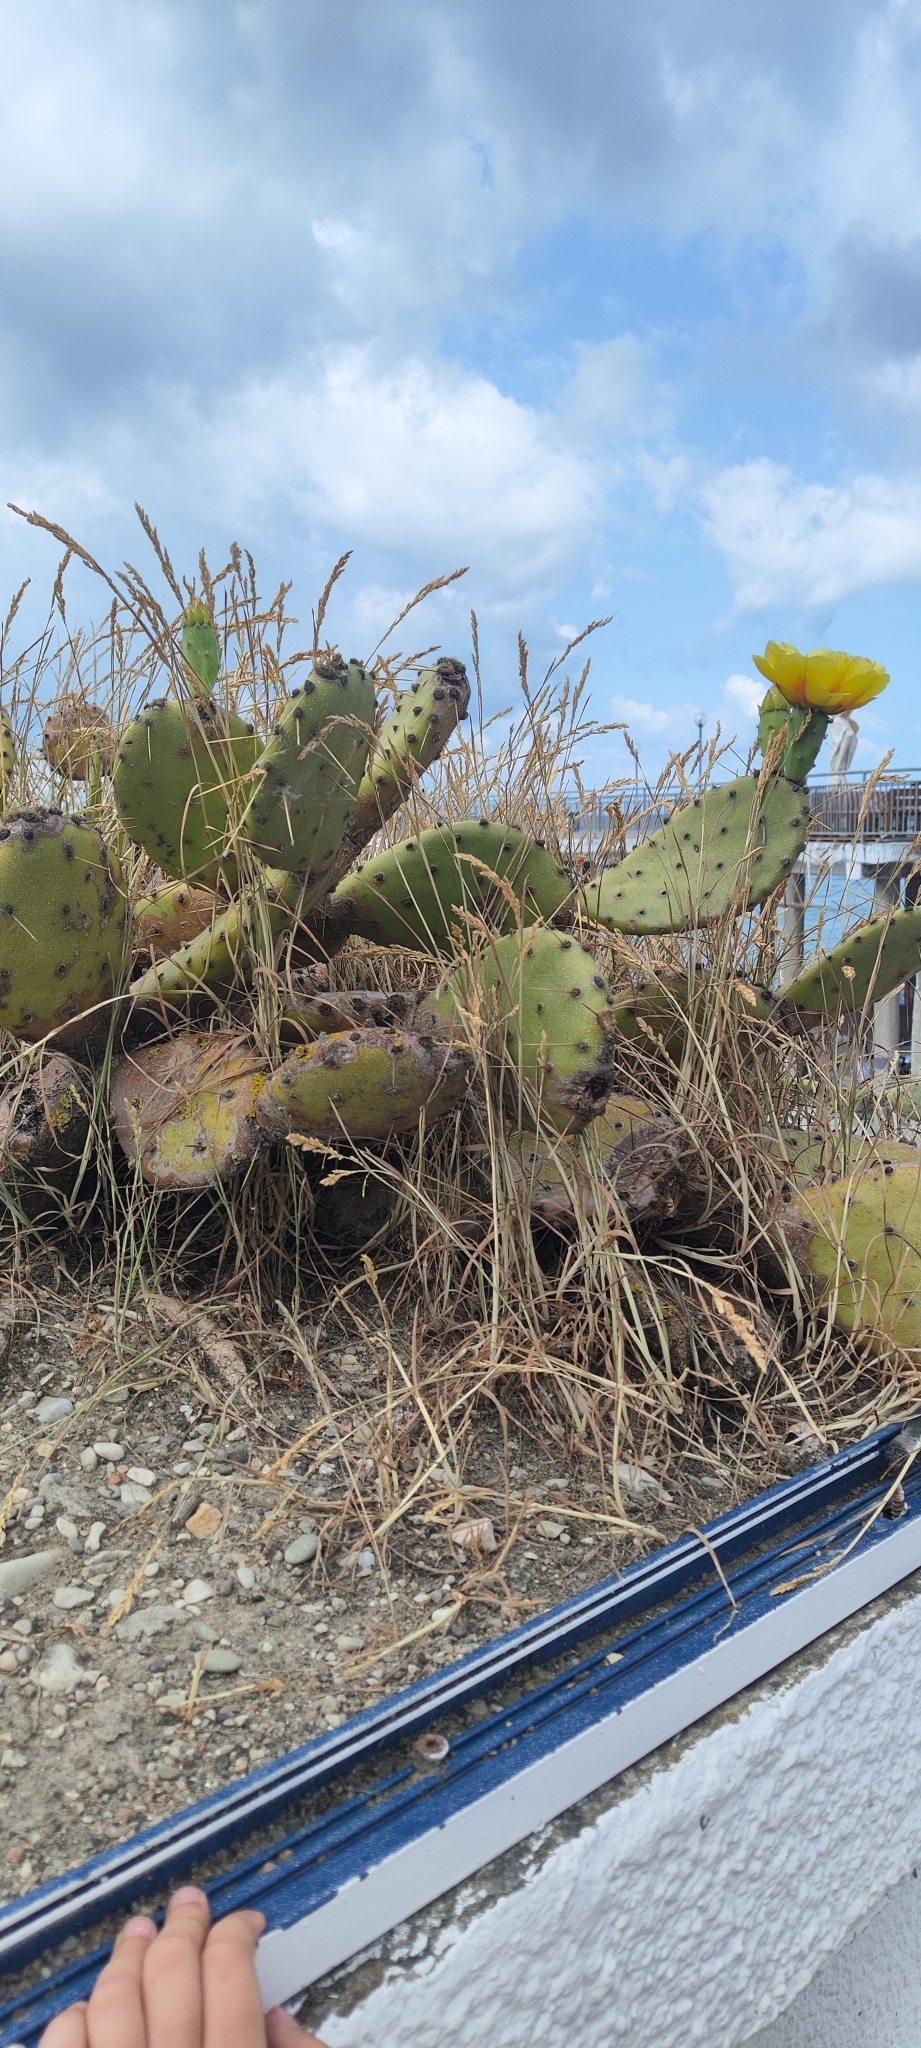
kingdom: Plantae
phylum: Tracheophyta
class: Magnoliopsida
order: Caryophyllales
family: Cactaceae
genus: Opuntia
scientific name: Opuntia humifusa
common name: Eastern prickly-pear
